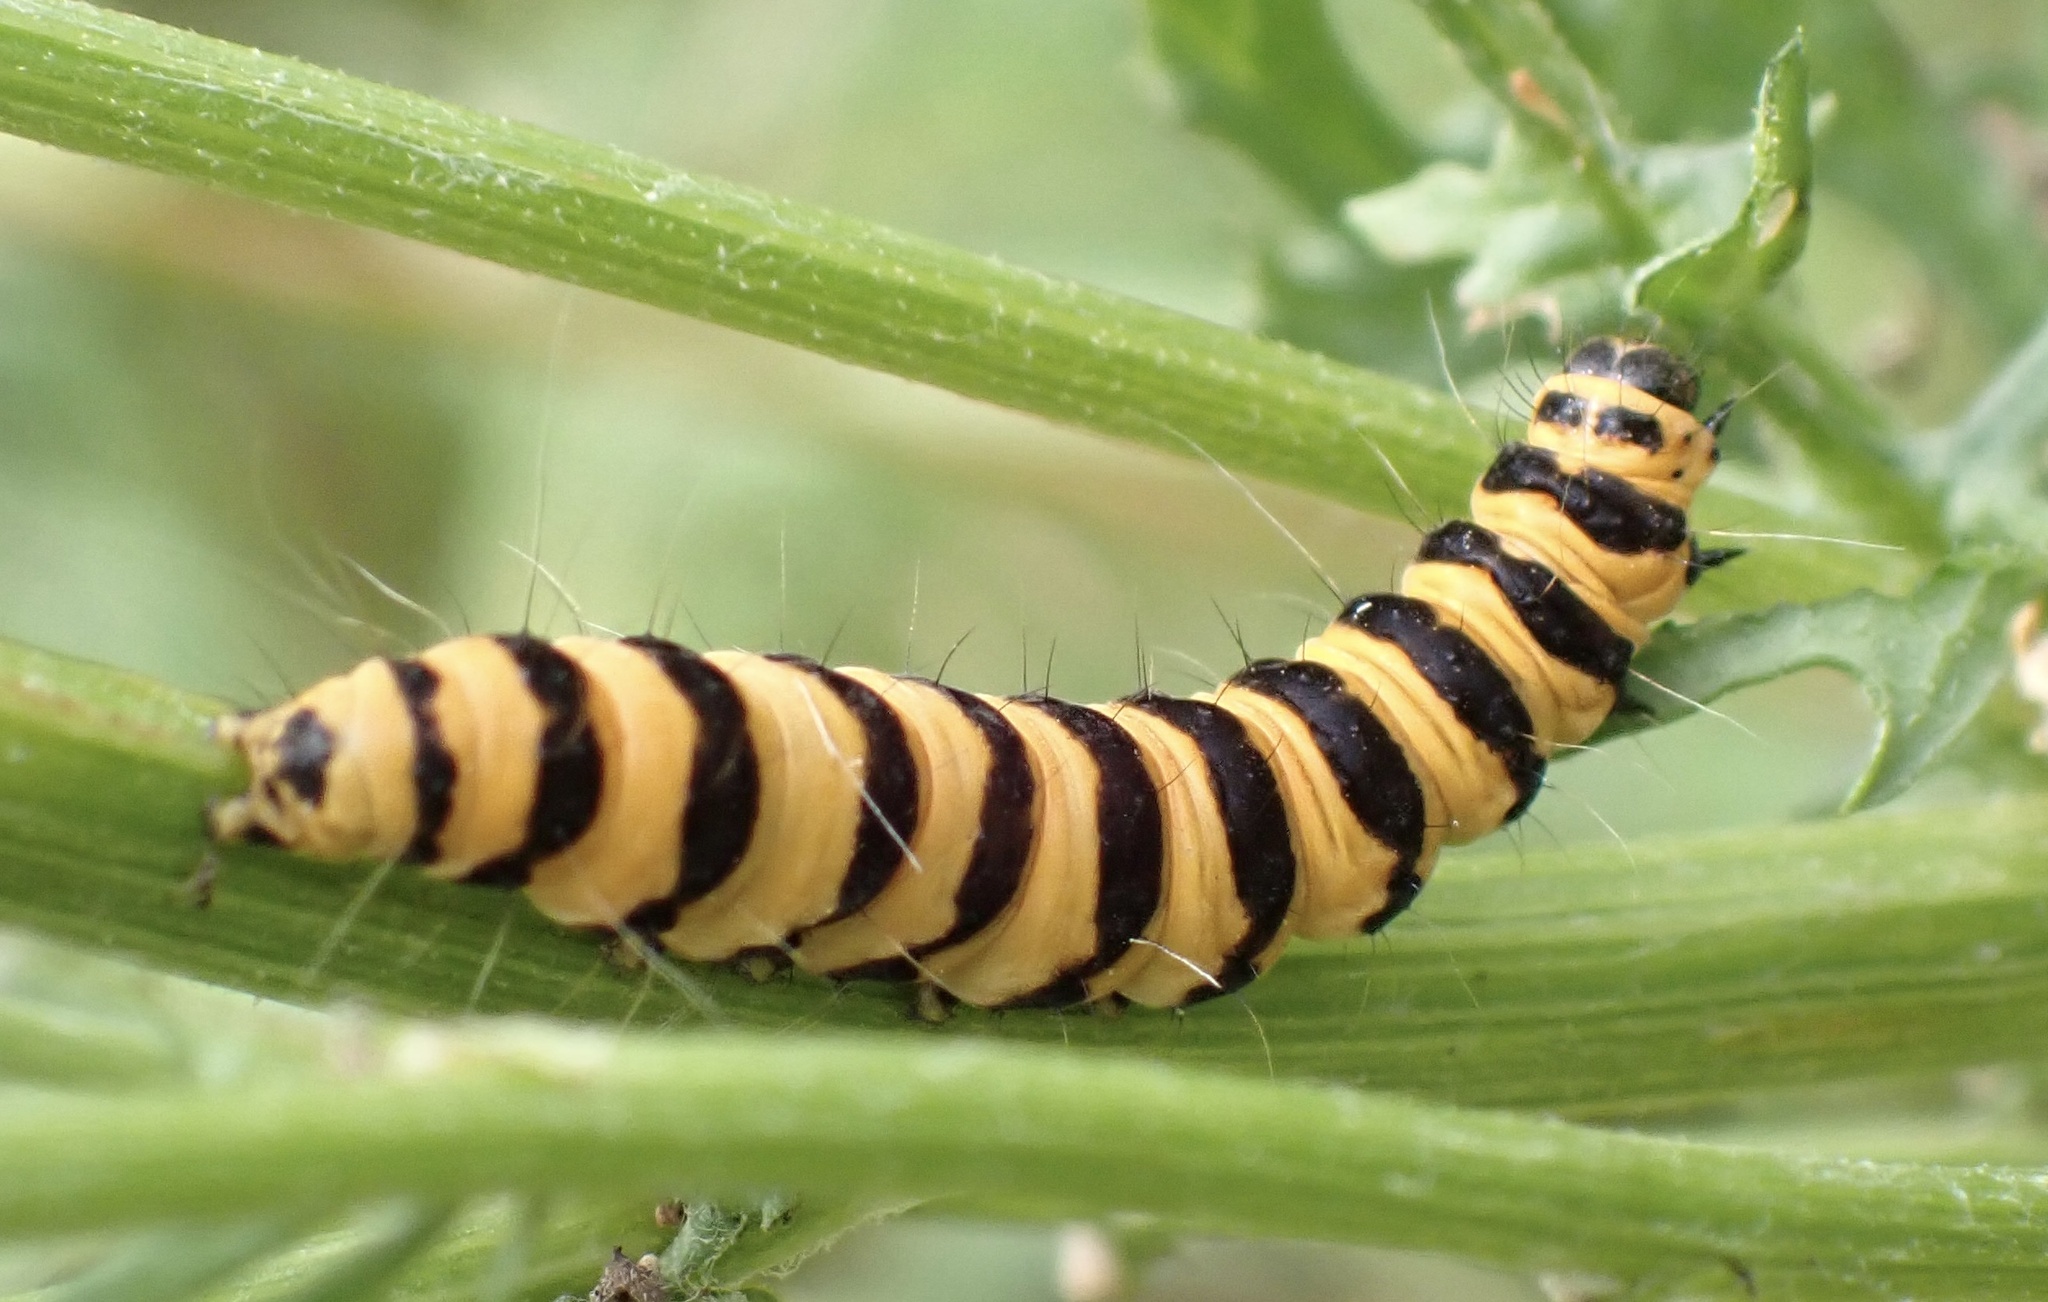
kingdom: Animalia
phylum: Arthropoda
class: Insecta
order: Lepidoptera
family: Erebidae
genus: Tyria
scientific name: Tyria jacobaeae
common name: Cinnabar
